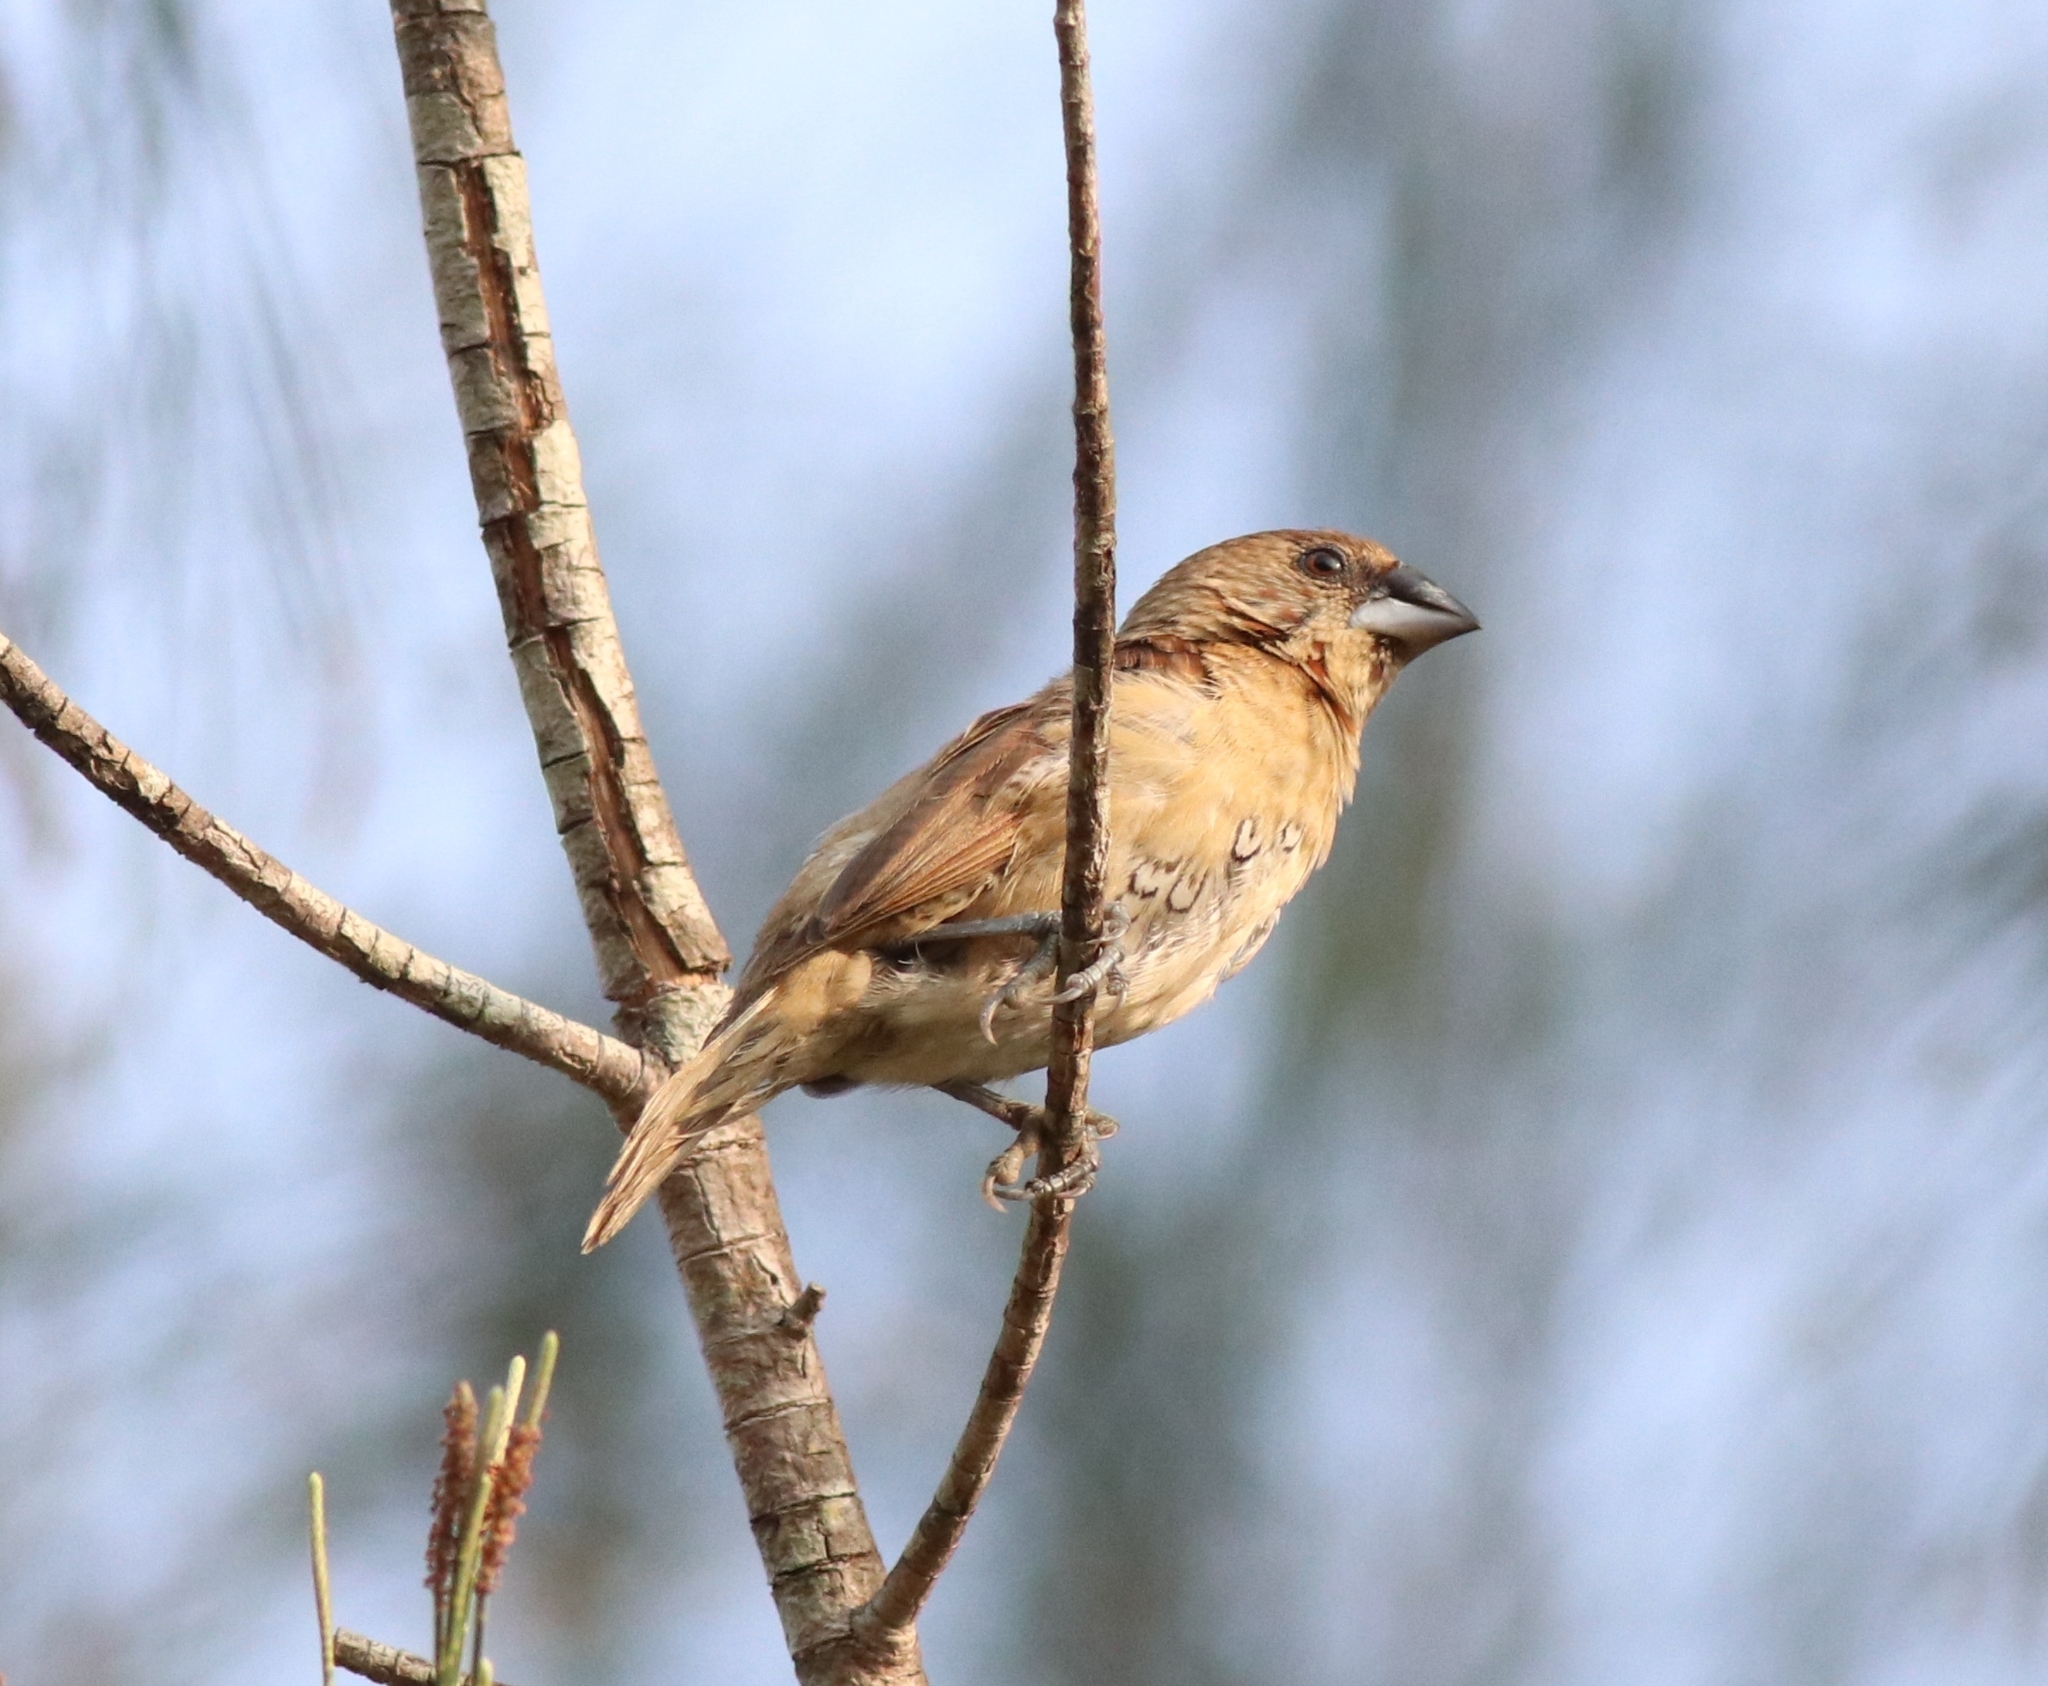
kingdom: Animalia
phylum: Chordata
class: Aves
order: Passeriformes
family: Estrildidae
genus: Lonchura
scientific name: Lonchura punctulata
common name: Scaly-breasted munia
